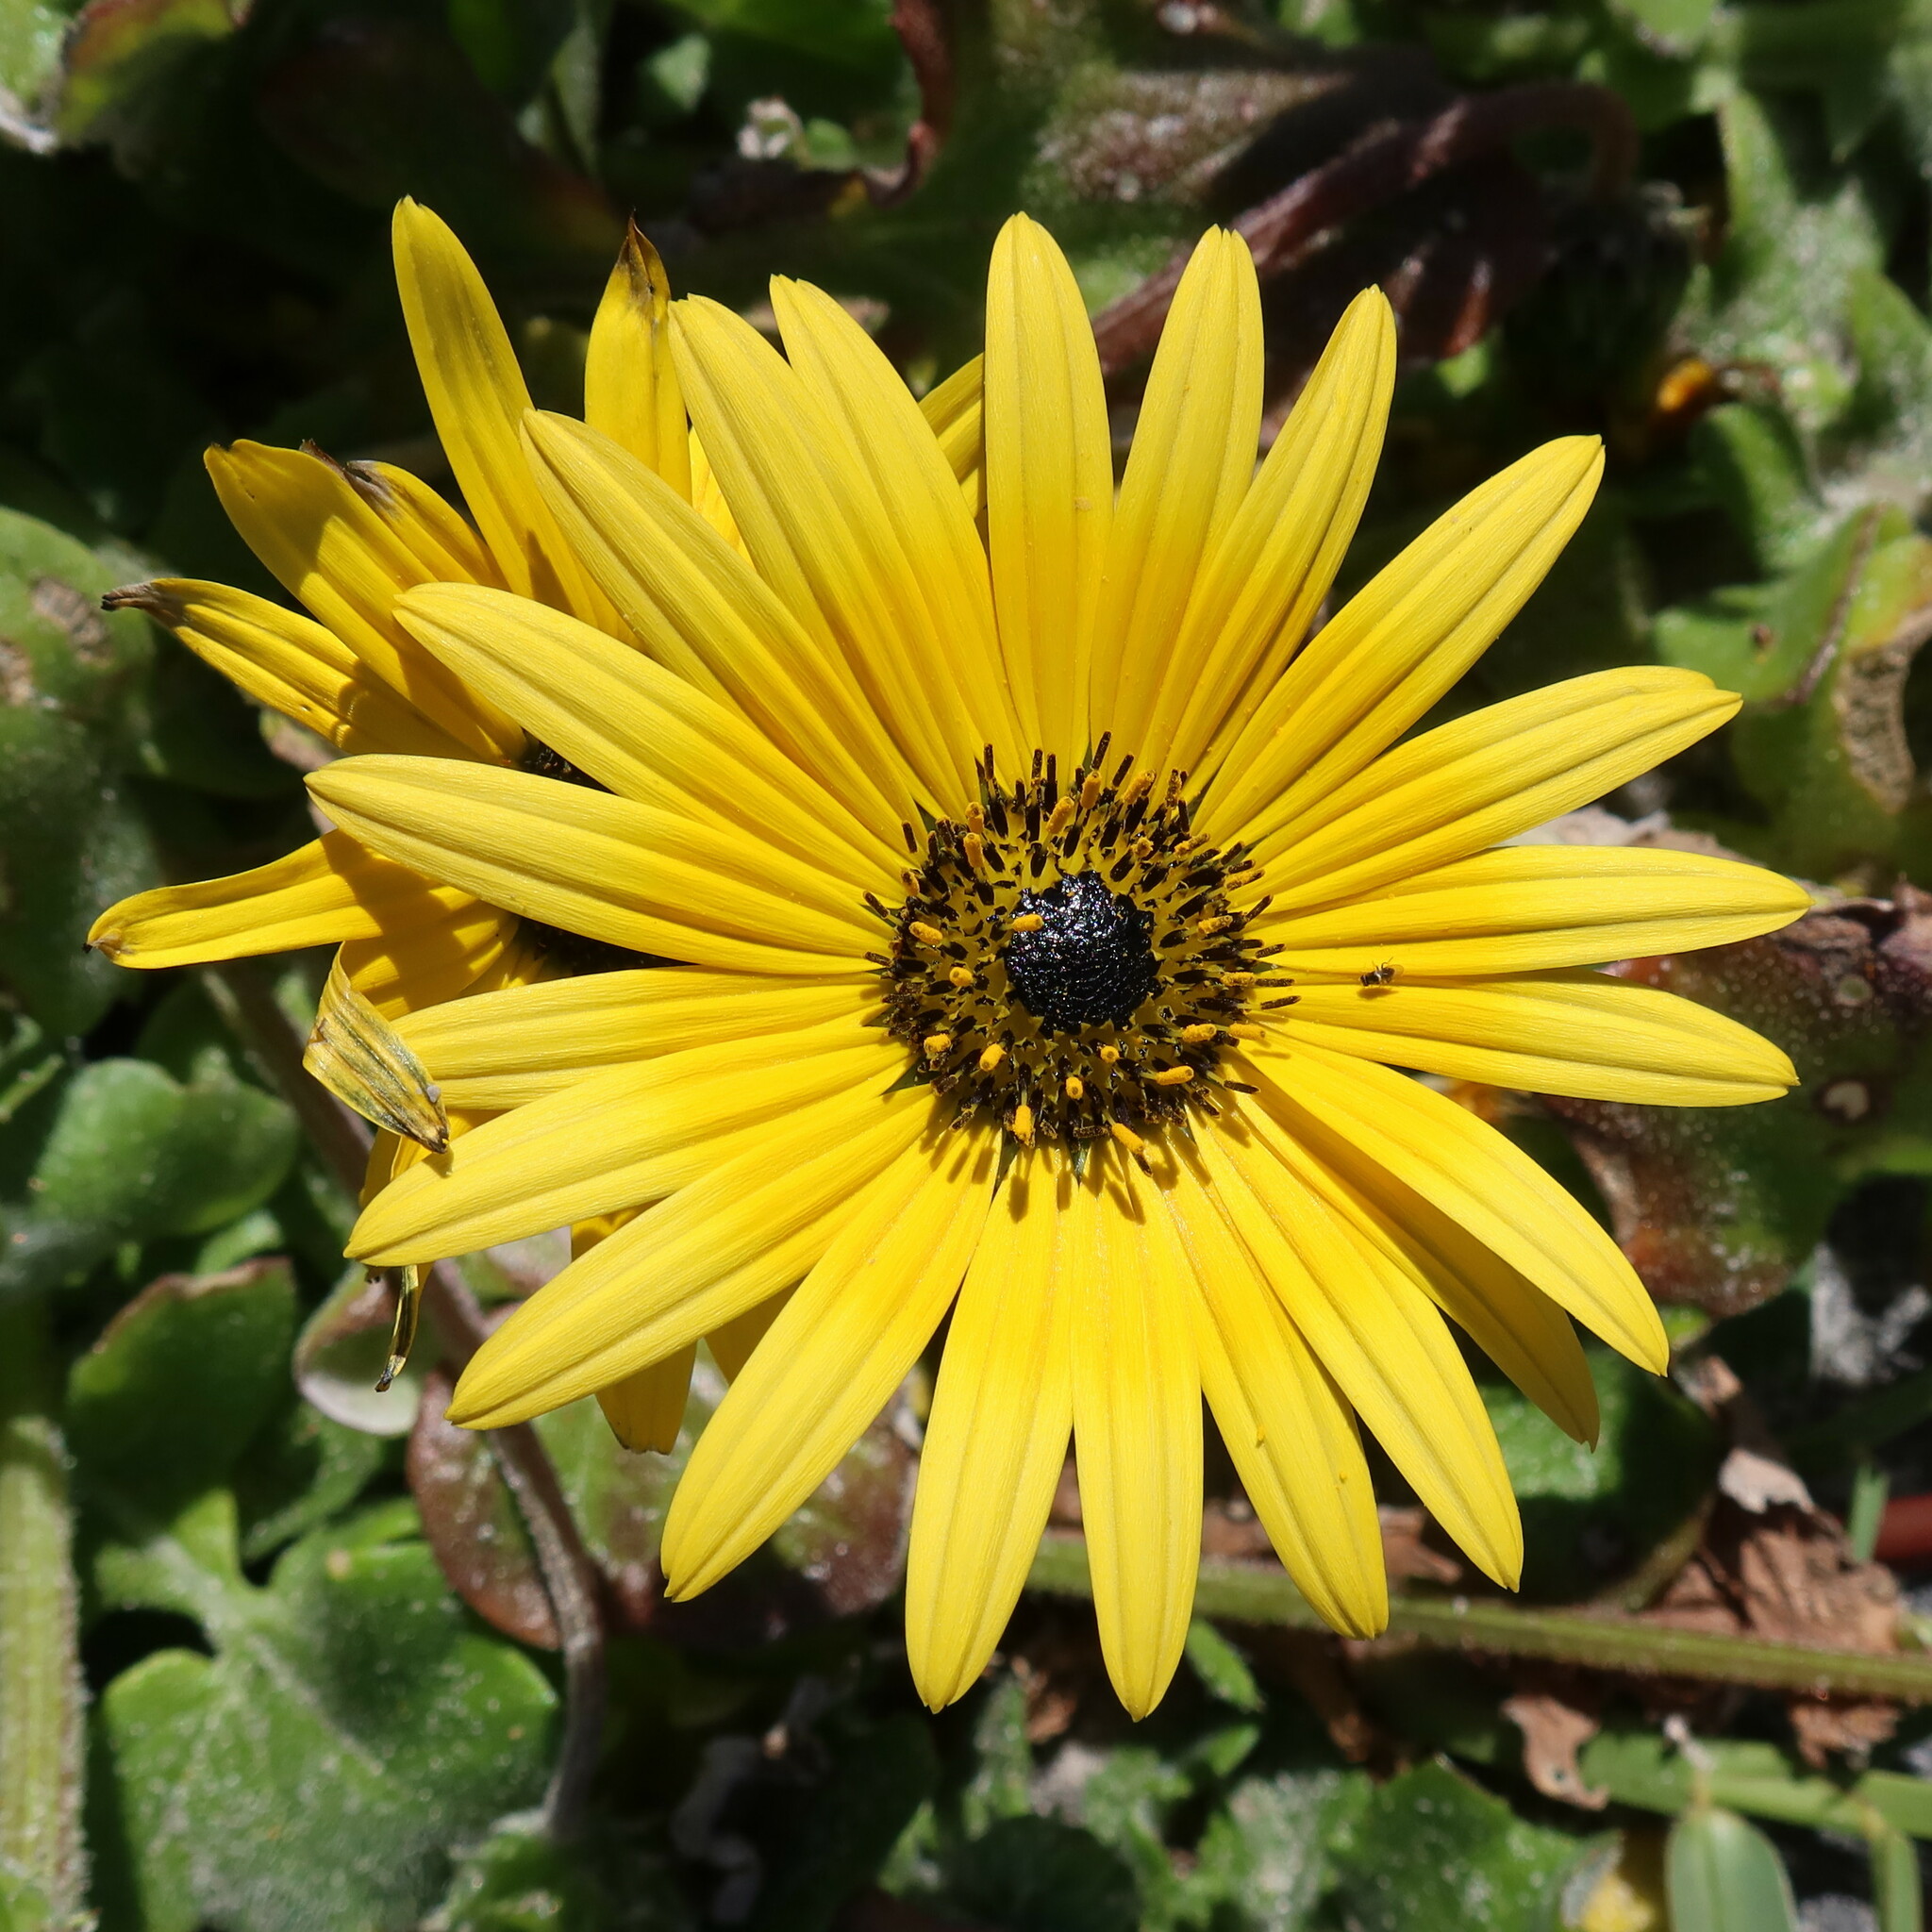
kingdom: Plantae
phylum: Tracheophyta
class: Magnoliopsida
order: Asterales
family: Asteraceae
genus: Arctotheca
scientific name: Arctotheca calendula
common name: Capeweed
